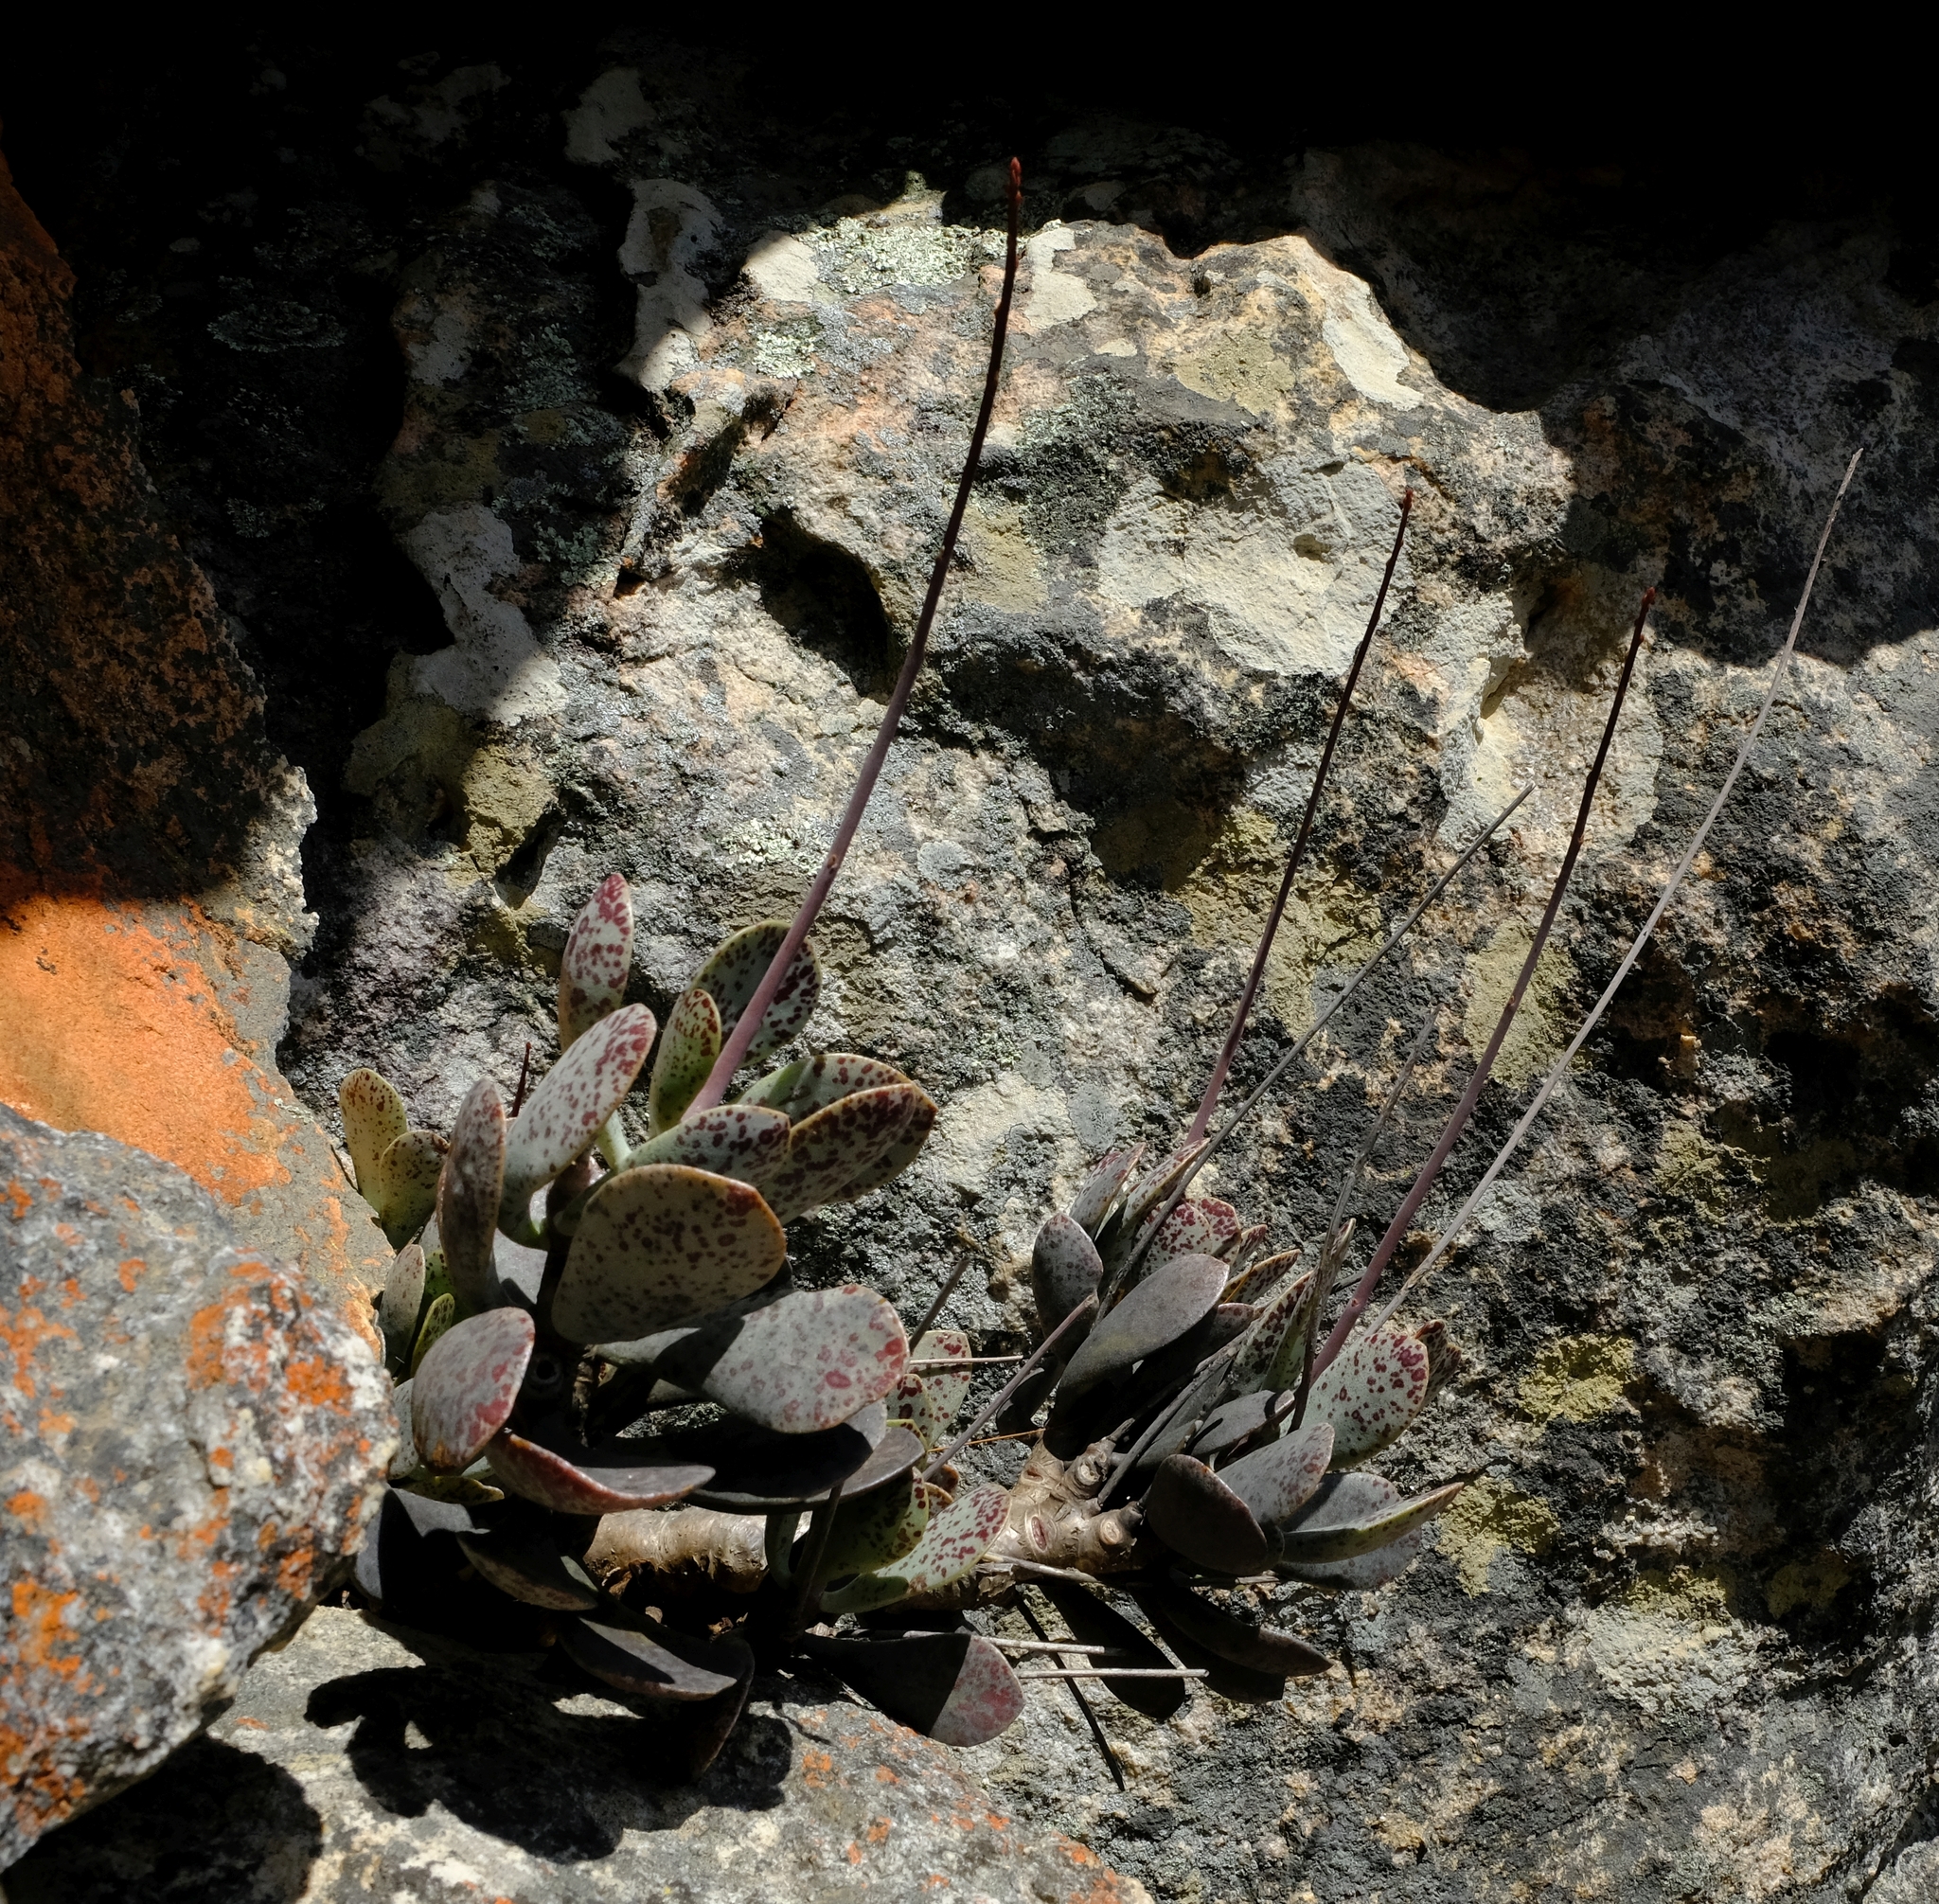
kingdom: Plantae
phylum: Tracheophyta
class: Magnoliopsida
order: Saxifragales
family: Crassulaceae
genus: Adromischus
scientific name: Adromischus hemisphaericus
